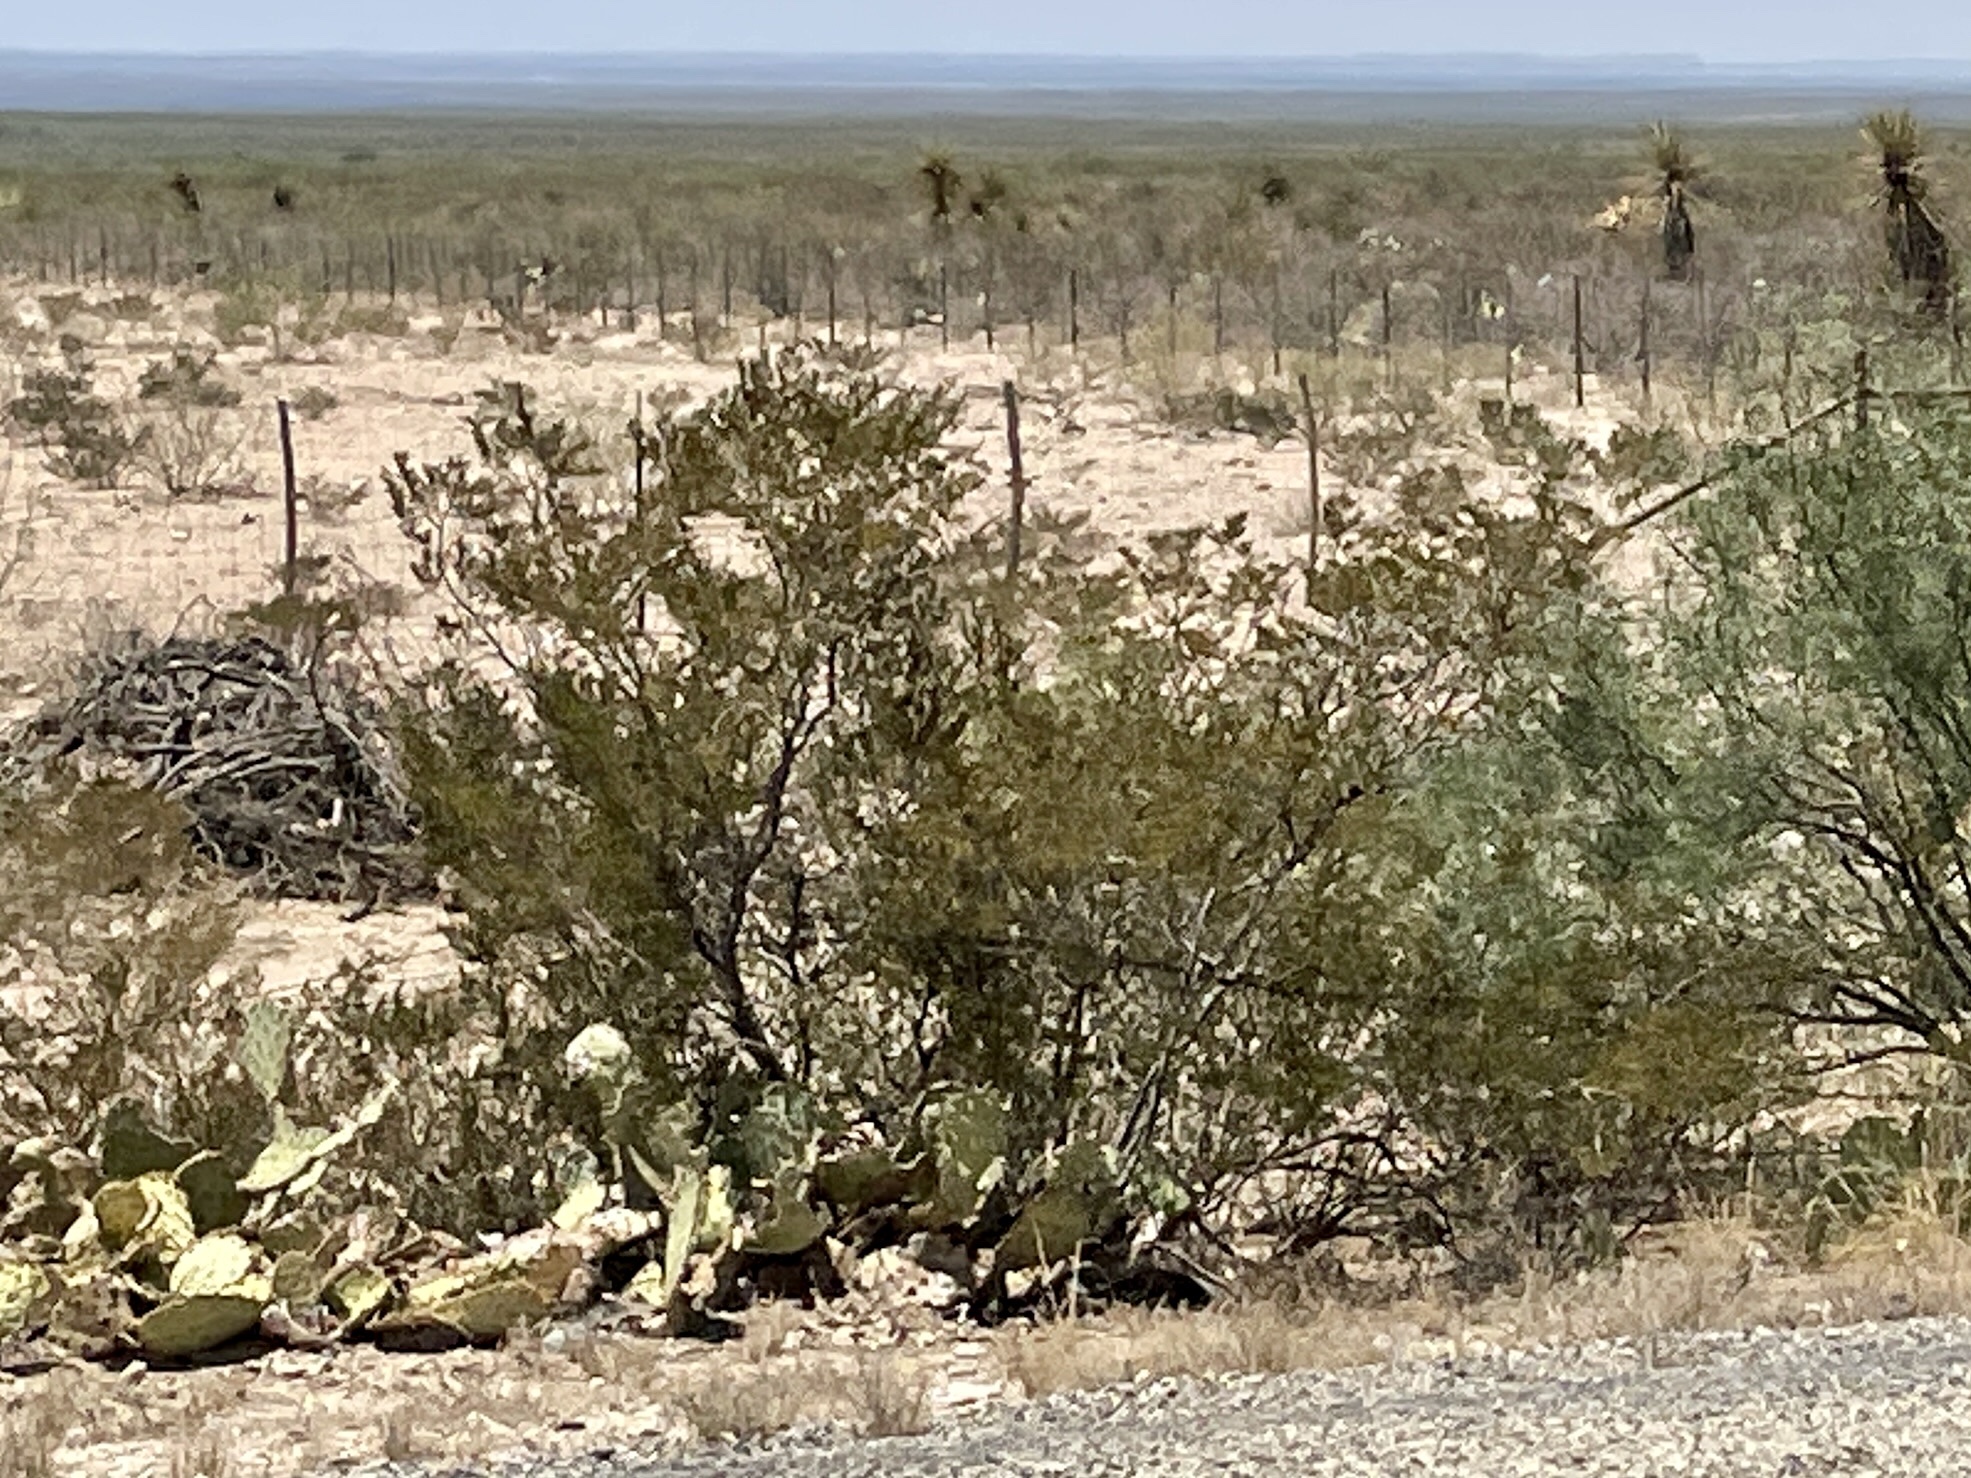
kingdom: Plantae
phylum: Tracheophyta
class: Magnoliopsida
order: Zygophyllales
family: Zygophyllaceae
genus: Larrea
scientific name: Larrea tridentata
